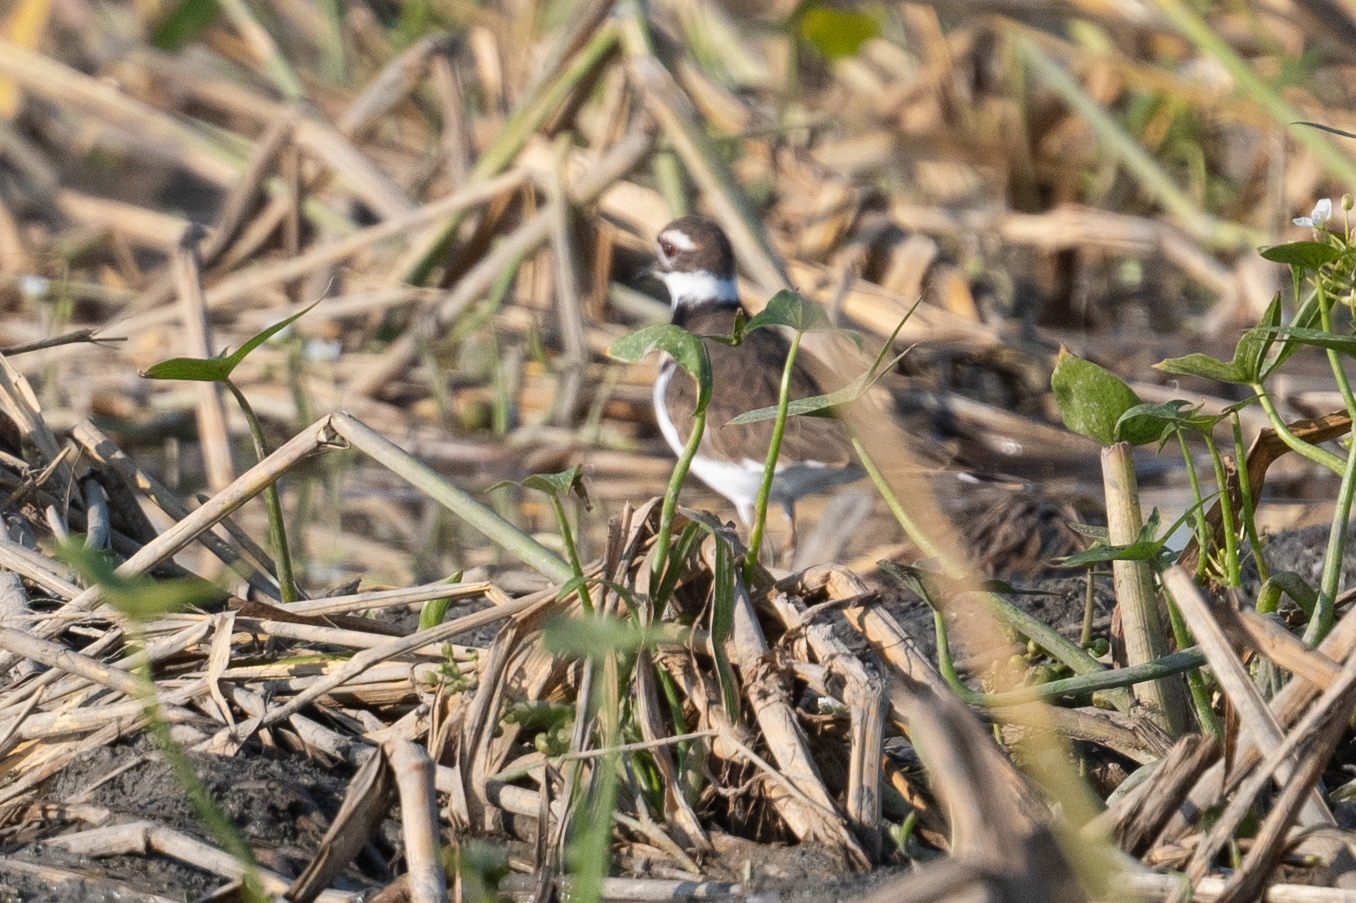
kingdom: Animalia
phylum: Chordata
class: Aves
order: Charadriiformes
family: Charadriidae
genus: Charadrius
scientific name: Charadrius vociferus
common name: Killdeer
